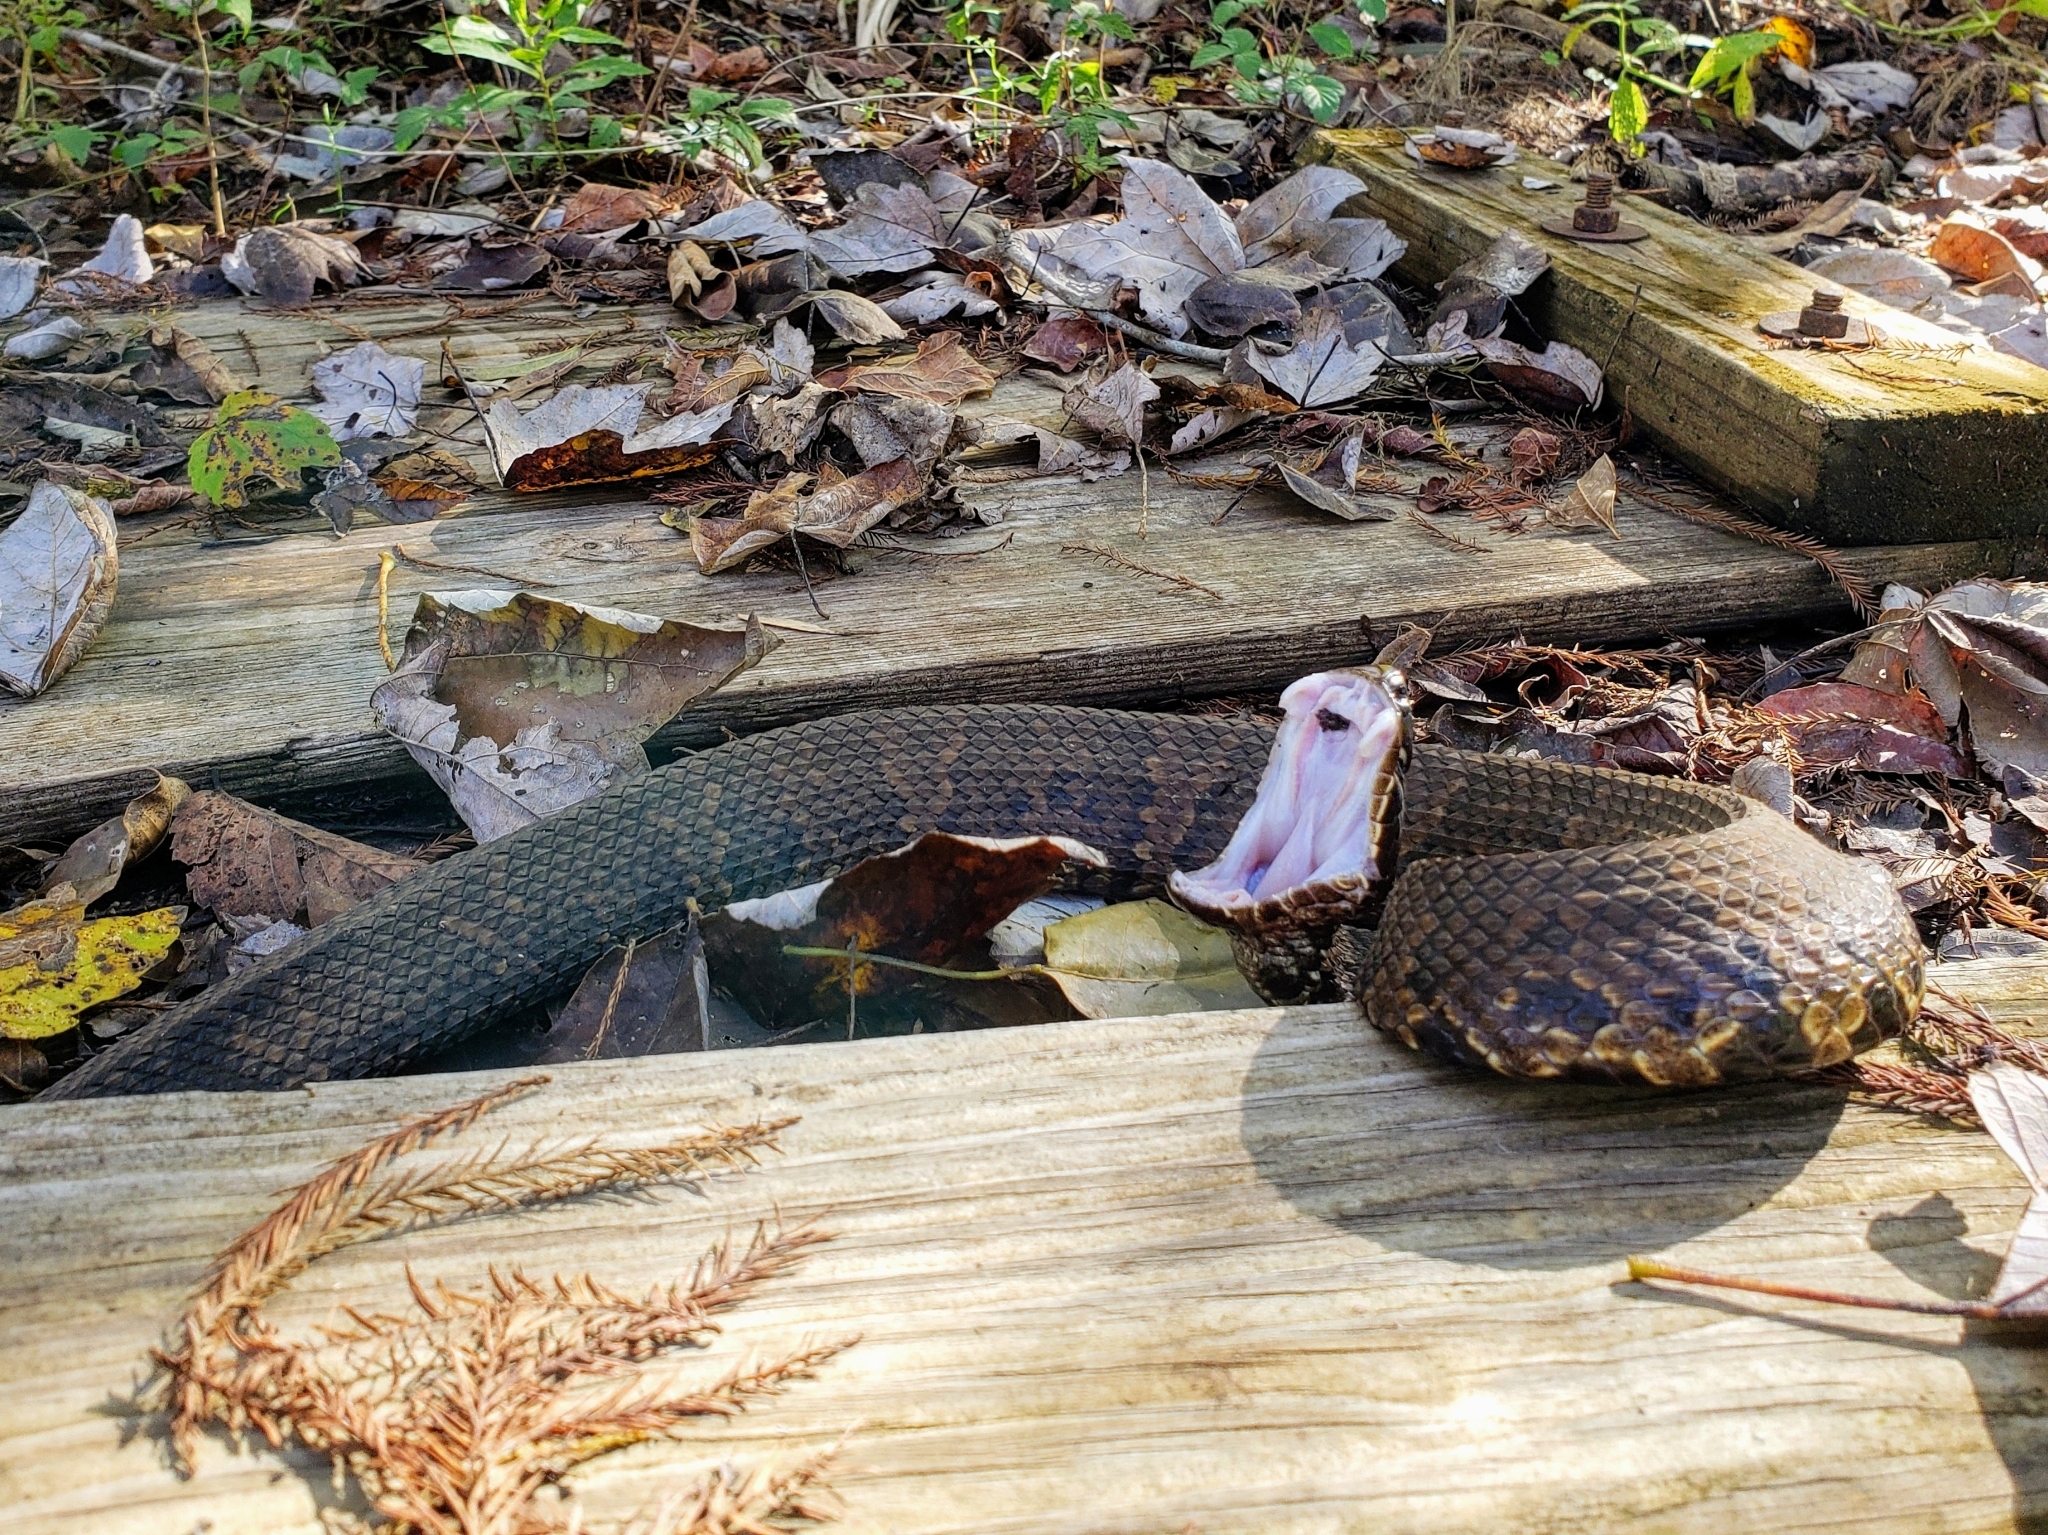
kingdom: Animalia
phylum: Chordata
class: Squamata
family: Viperidae
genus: Agkistrodon
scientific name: Agkistrodon piscivorus
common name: Cottonmouth
